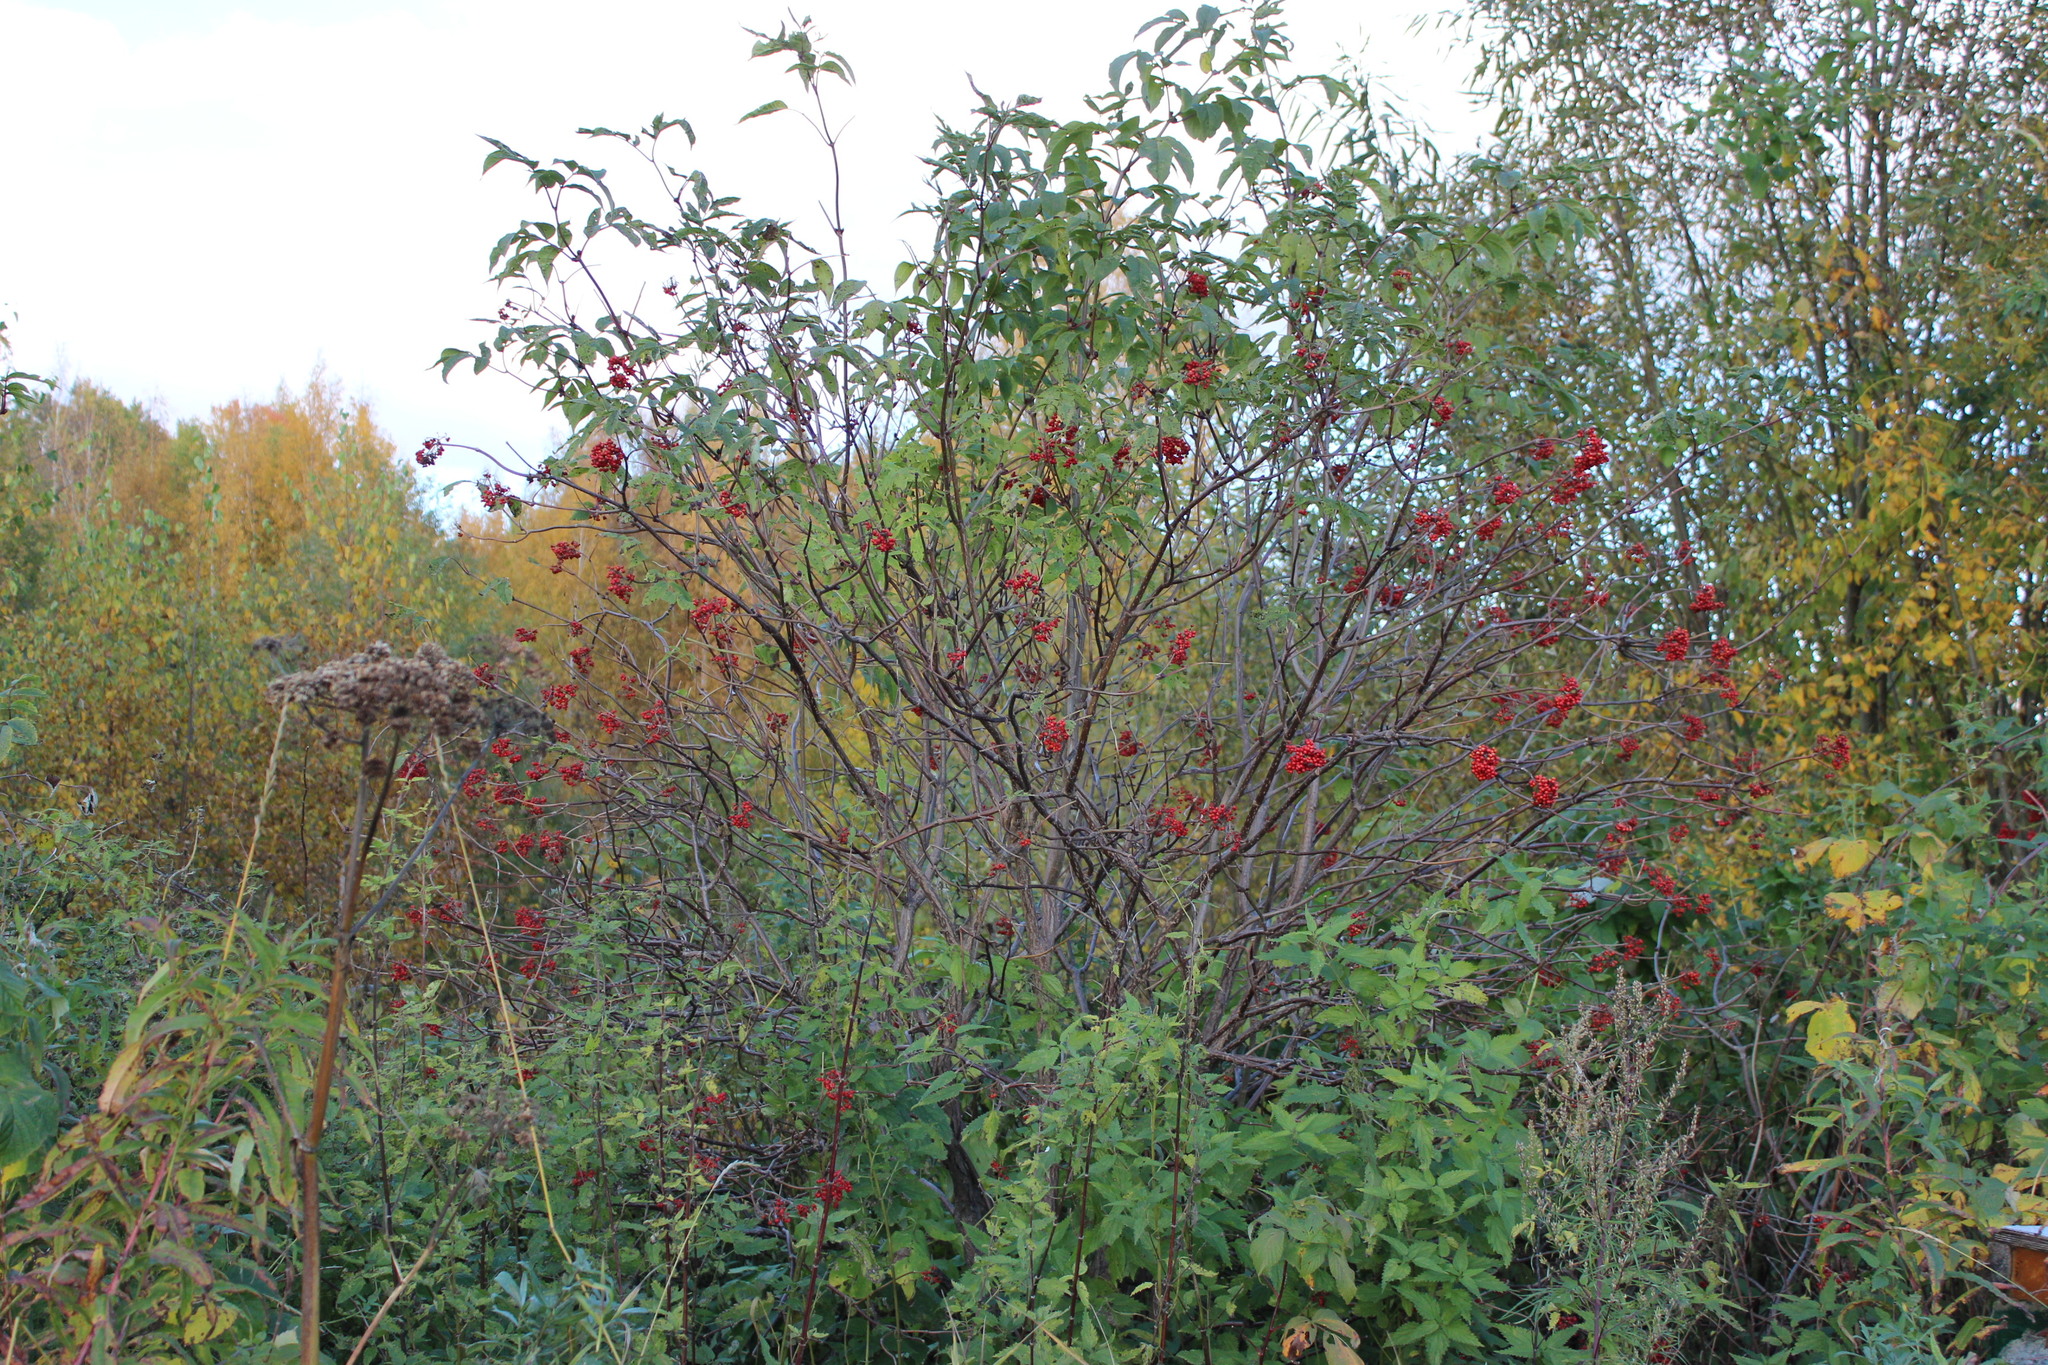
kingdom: Plantae
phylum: Tracheophyta
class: Magnoliopsida
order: Dipsacales
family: Viburnaceae
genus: Sambucus
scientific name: Sambucus sibirica
